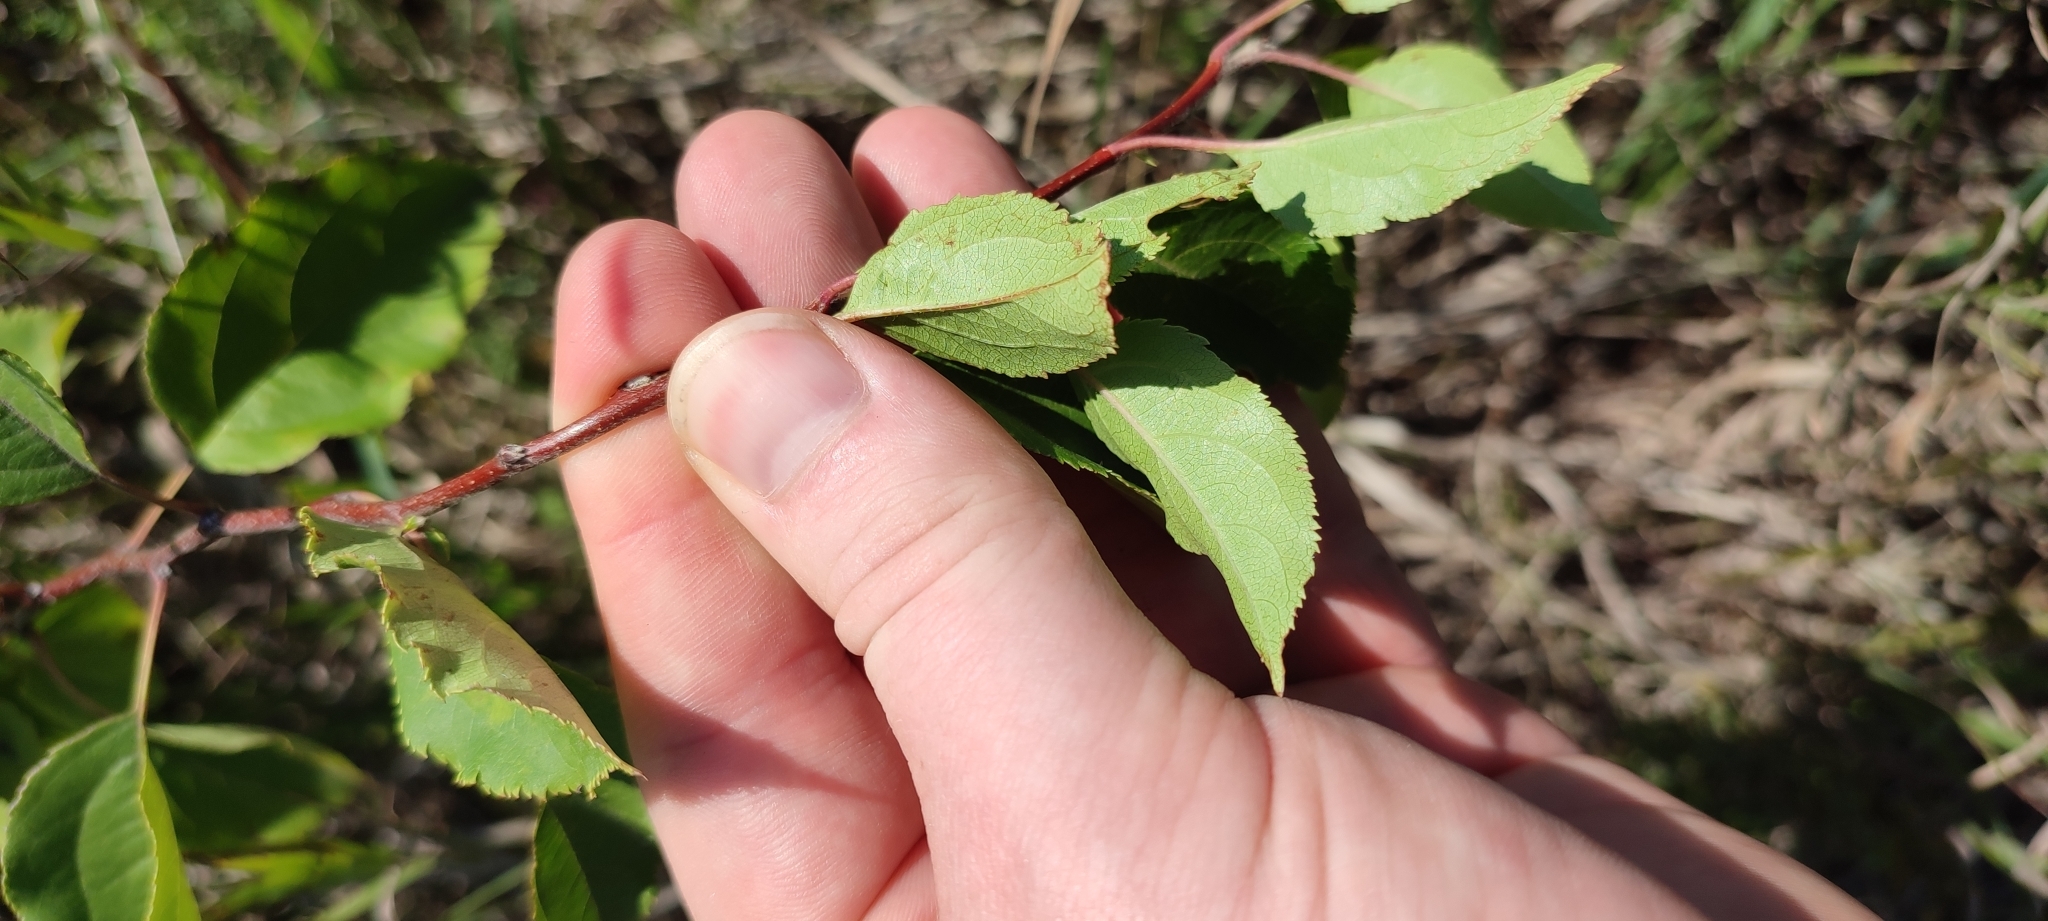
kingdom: Plantae
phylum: Tracheophyta
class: Magnoliopsida
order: Rosales
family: Rosaceae
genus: Malus
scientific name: Malus baccata
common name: Siberian crab
